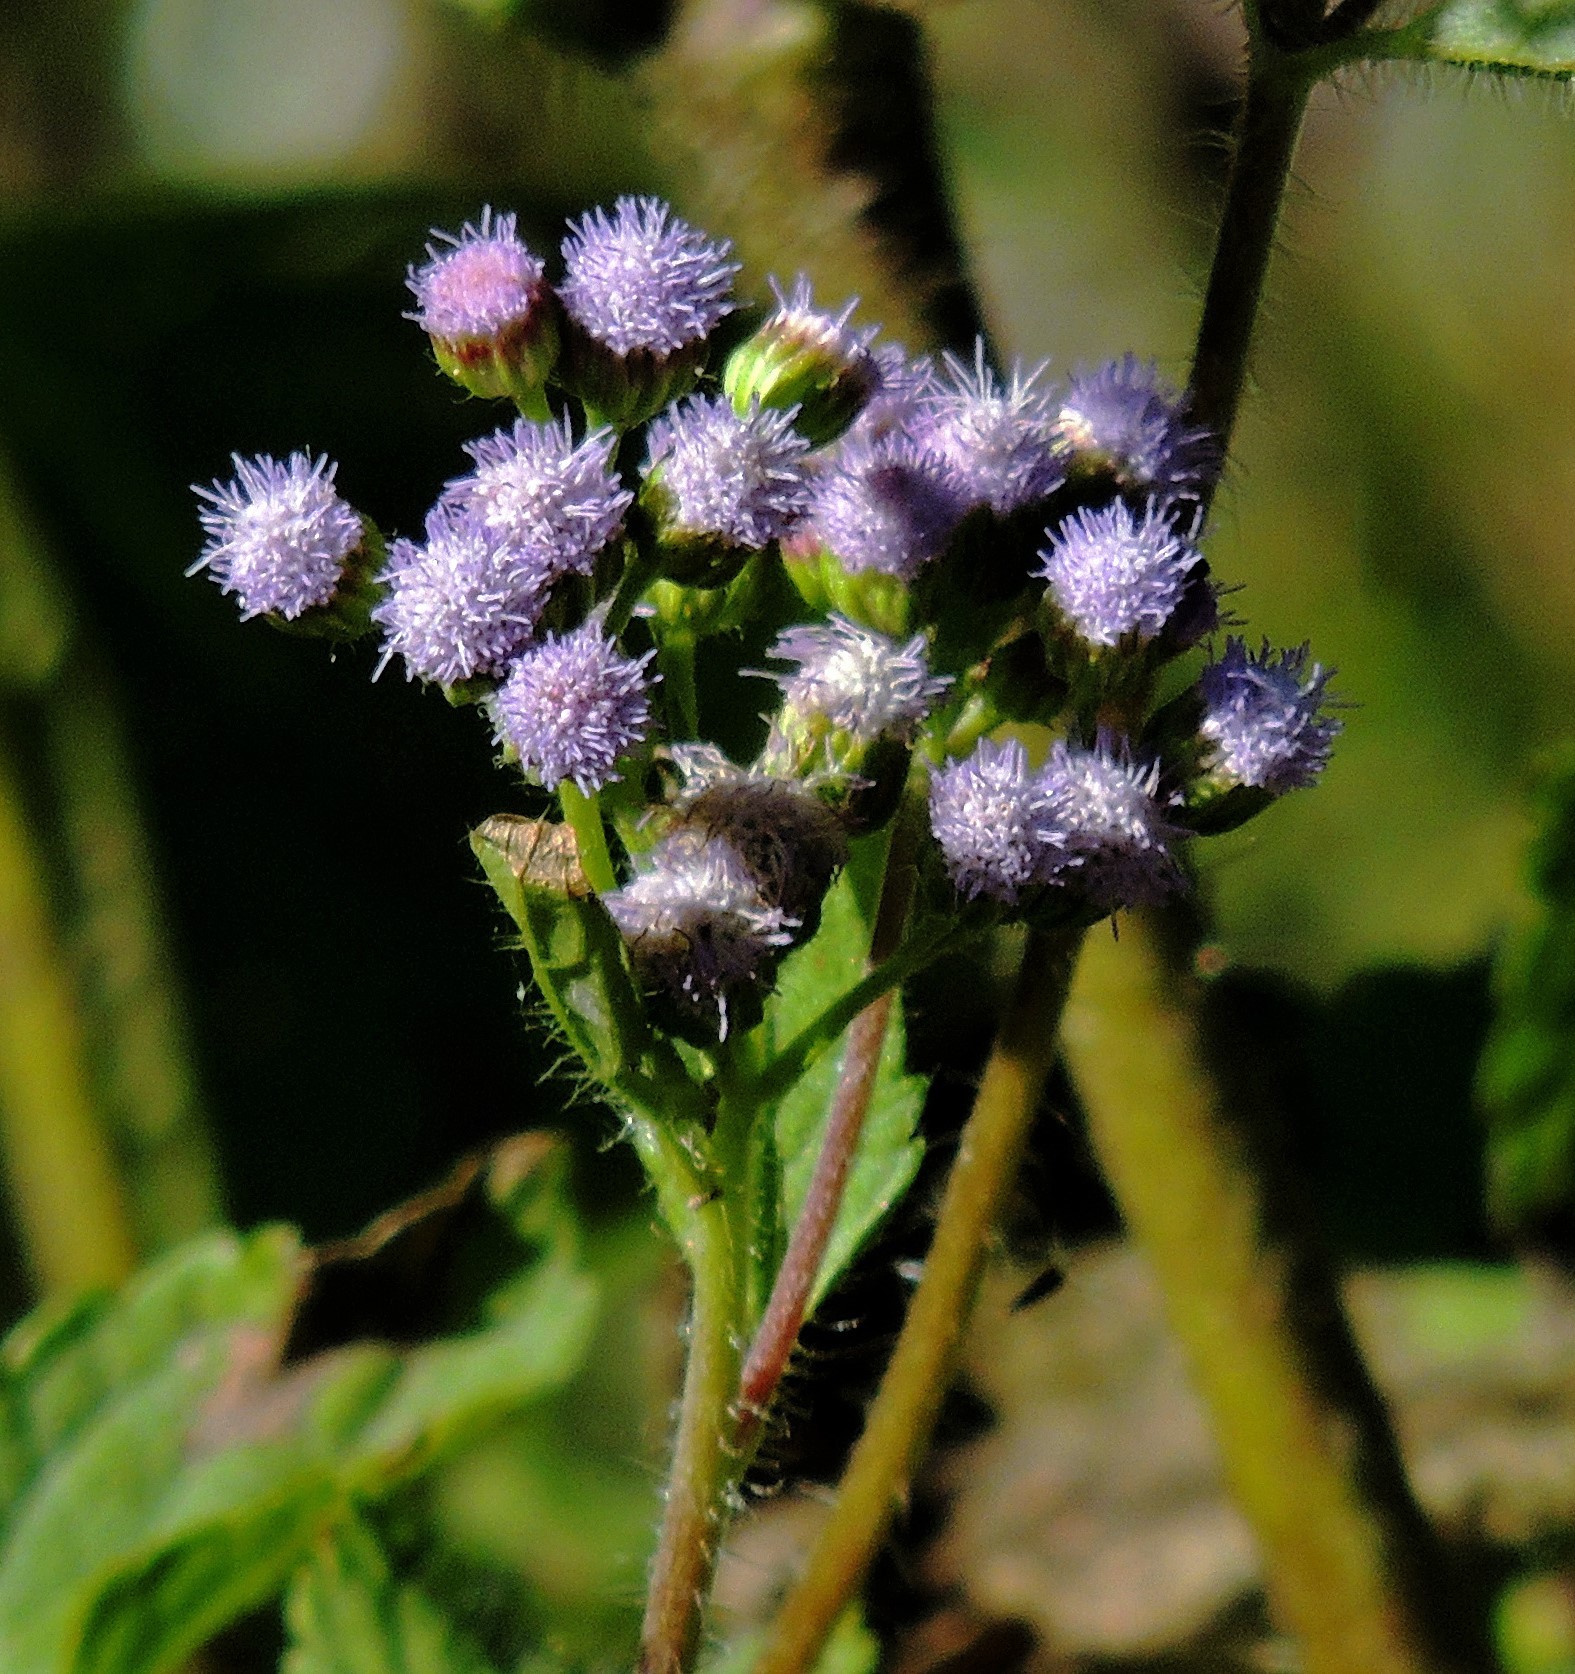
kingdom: Plantae
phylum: Tracheophyta
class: Magnoliopsida
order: Asterales
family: Asteraceae
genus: Ageratum
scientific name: Ageratum conyzoides
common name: Tropical whiteweed
